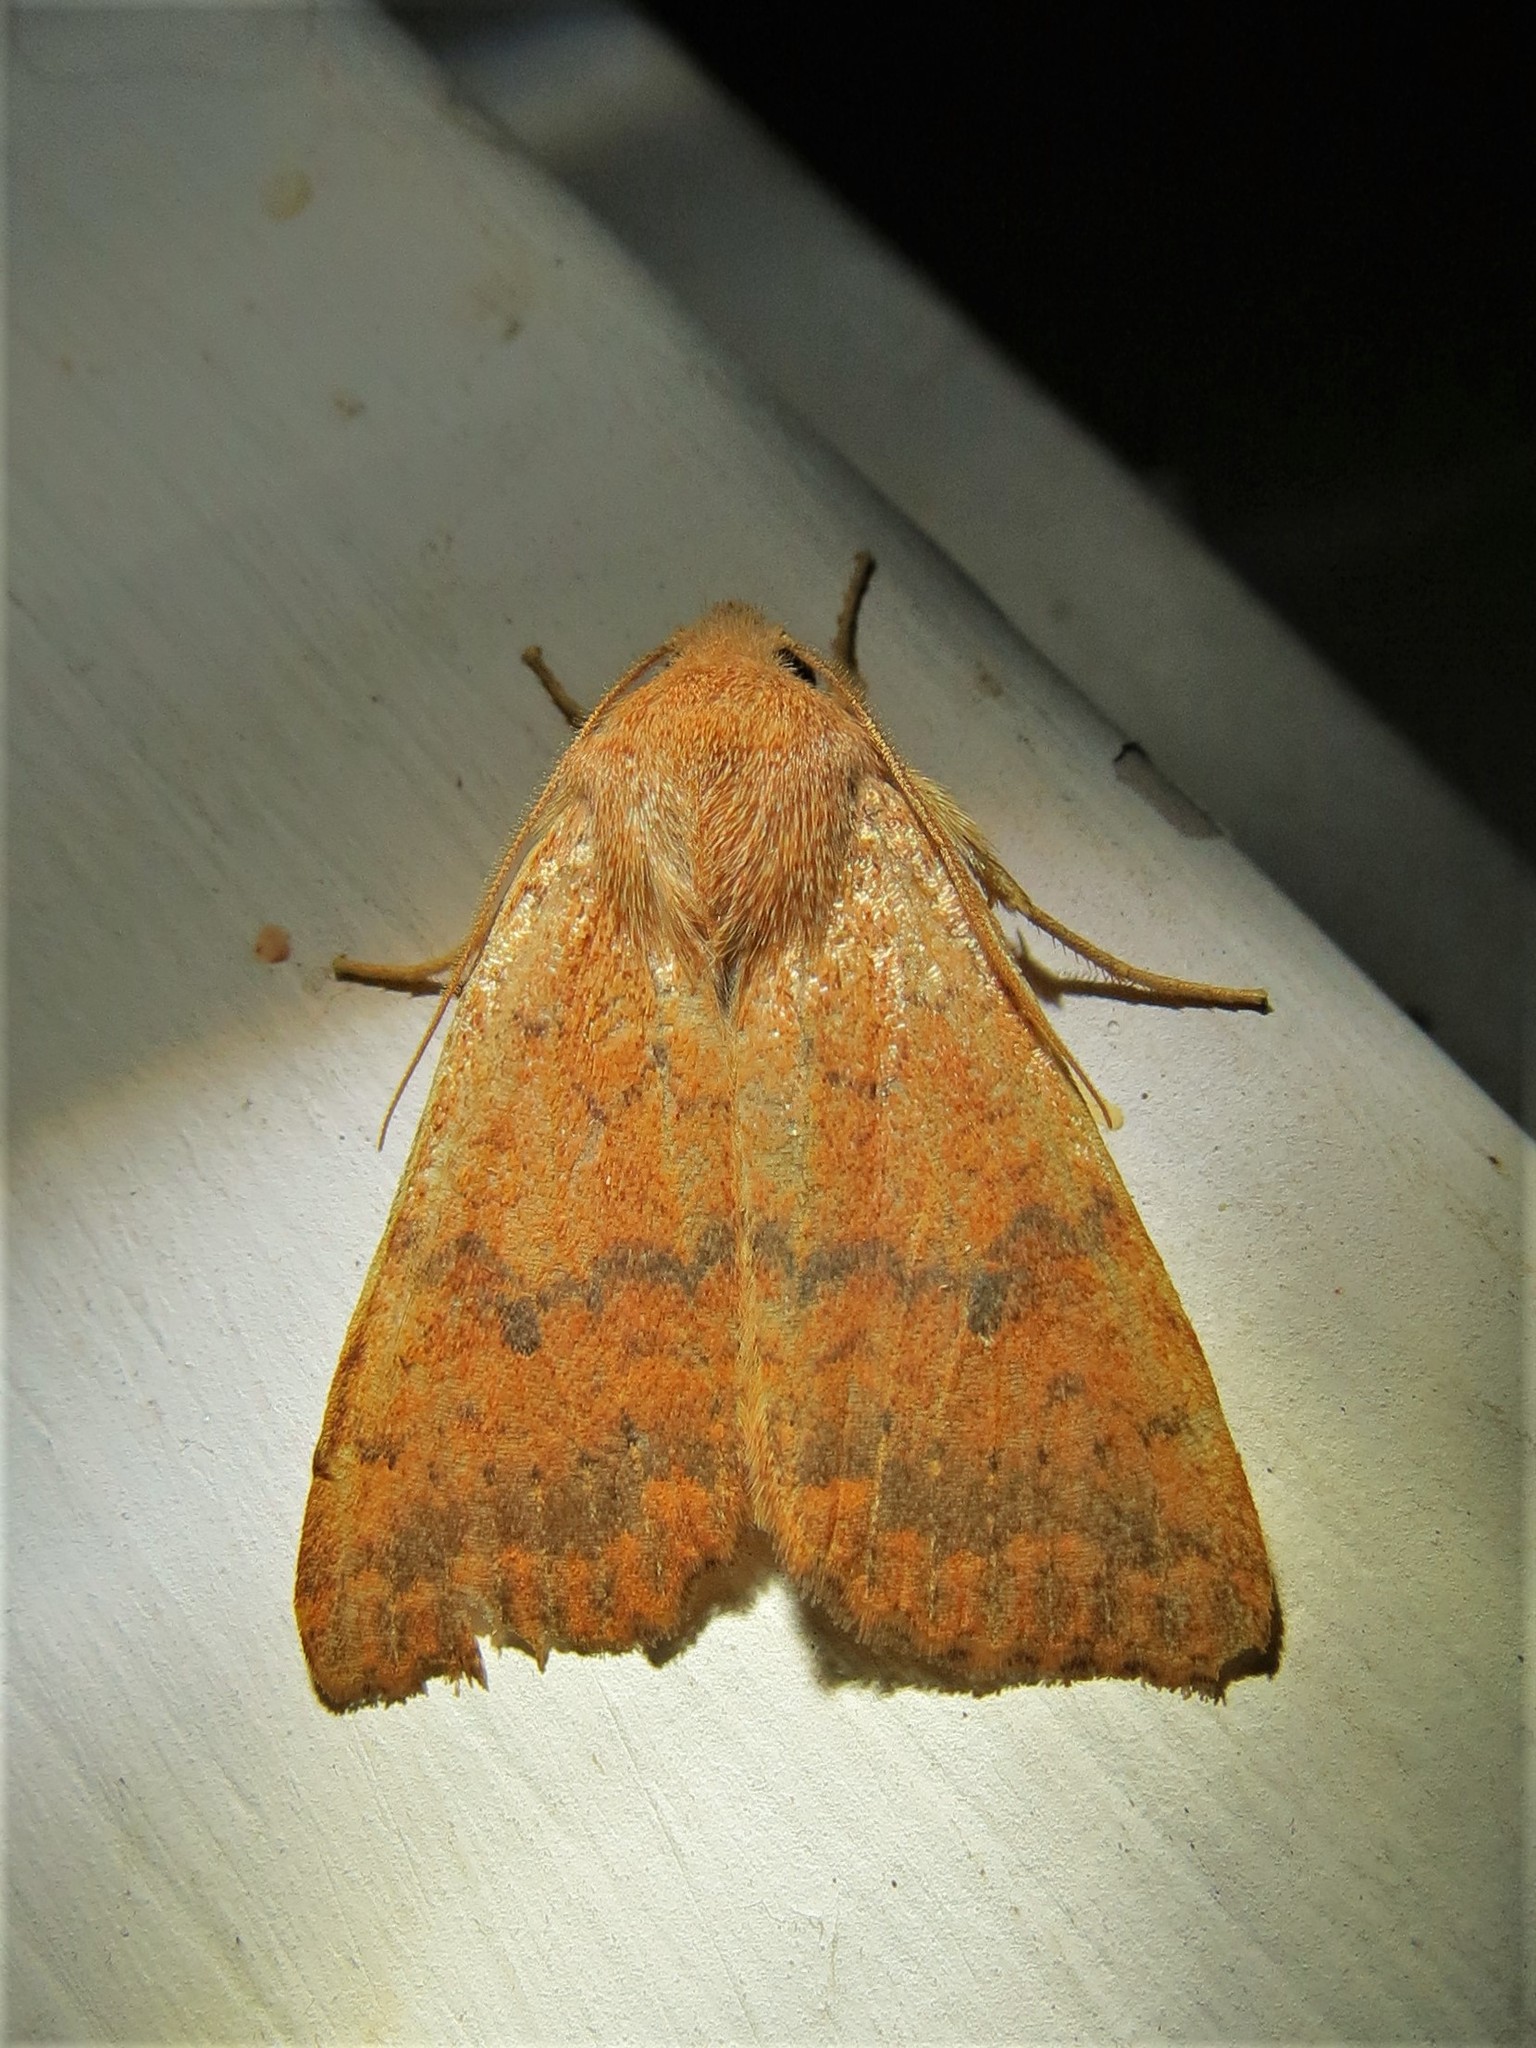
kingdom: Animalia
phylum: Arthropoda
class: Insecta
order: Lepidoptera
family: Noctuidae
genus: Agrochola
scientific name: Agrochola bicolorago
